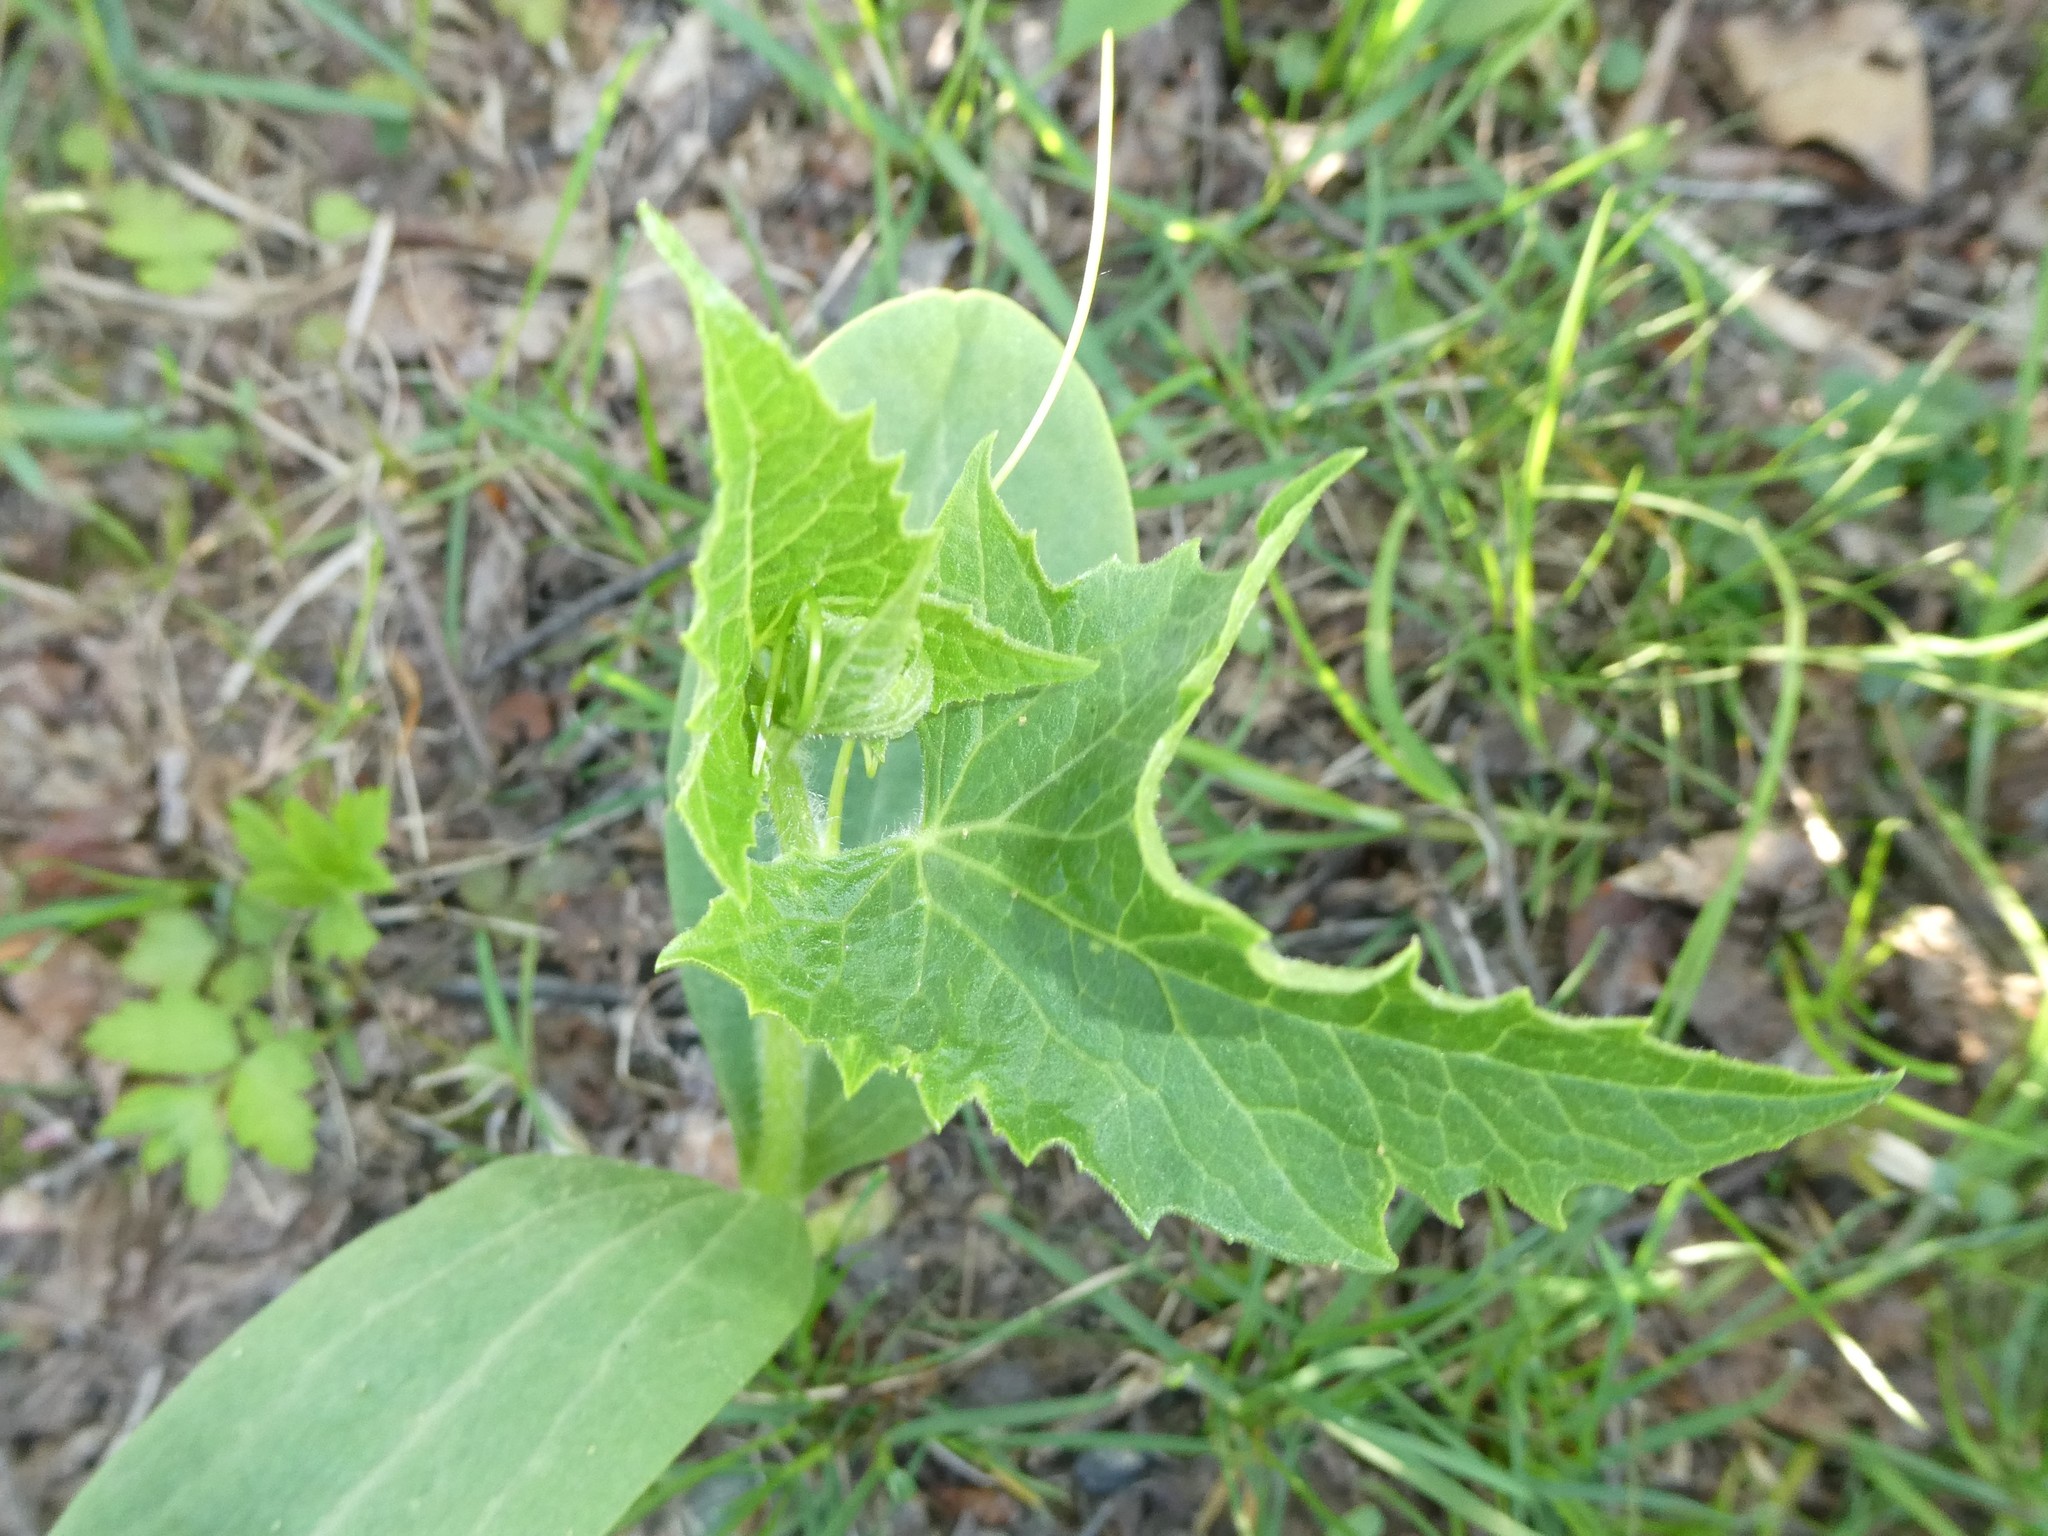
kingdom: Plantae
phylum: Tracheophyta
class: Magnoliopsida
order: Cucurbitales
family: Cucurbitaceae
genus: Echinocystis
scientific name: Echinocystis lobata
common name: Wild cucumber
